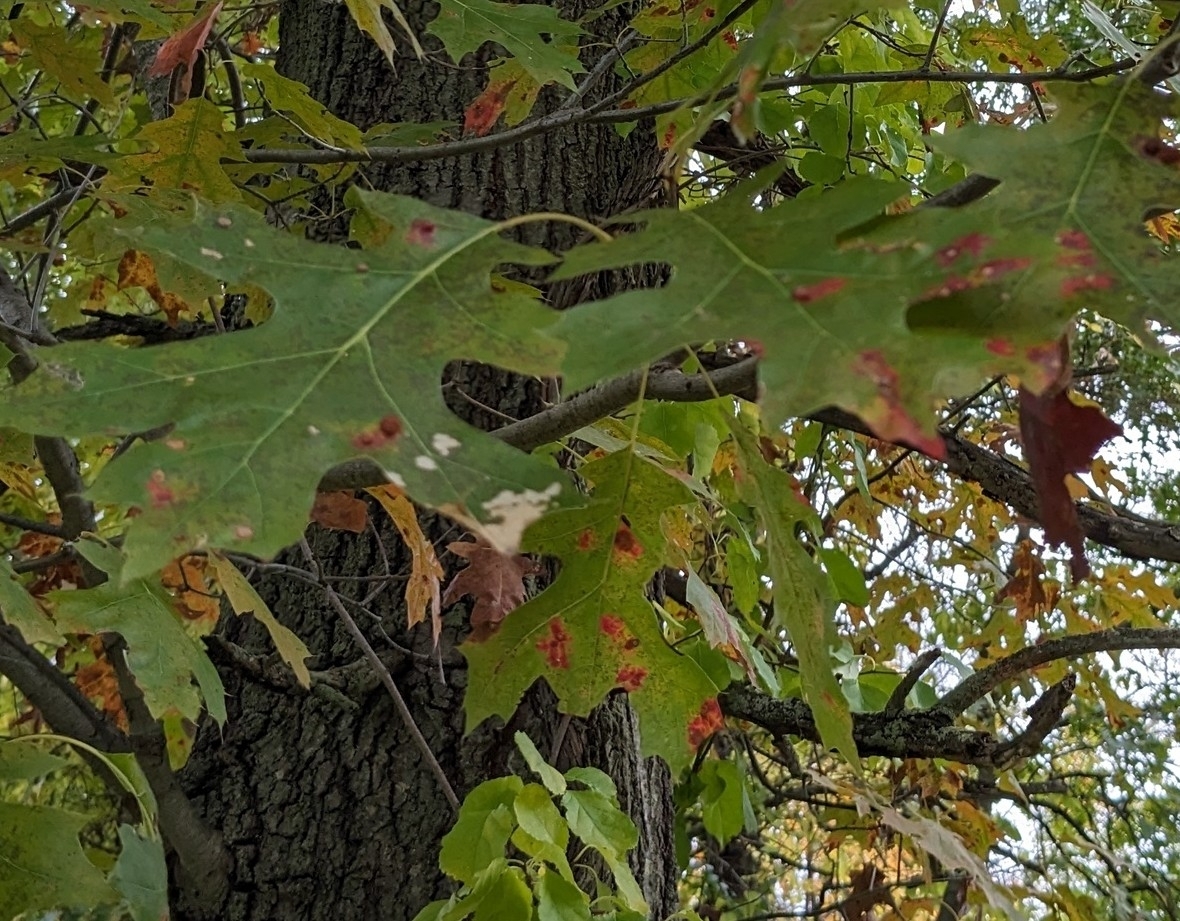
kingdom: Plantae
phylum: Tracheophyta
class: Magnoliopsida
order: Fagales
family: Fagaceae
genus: Quercus
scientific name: Quercus velutina
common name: Black oak
